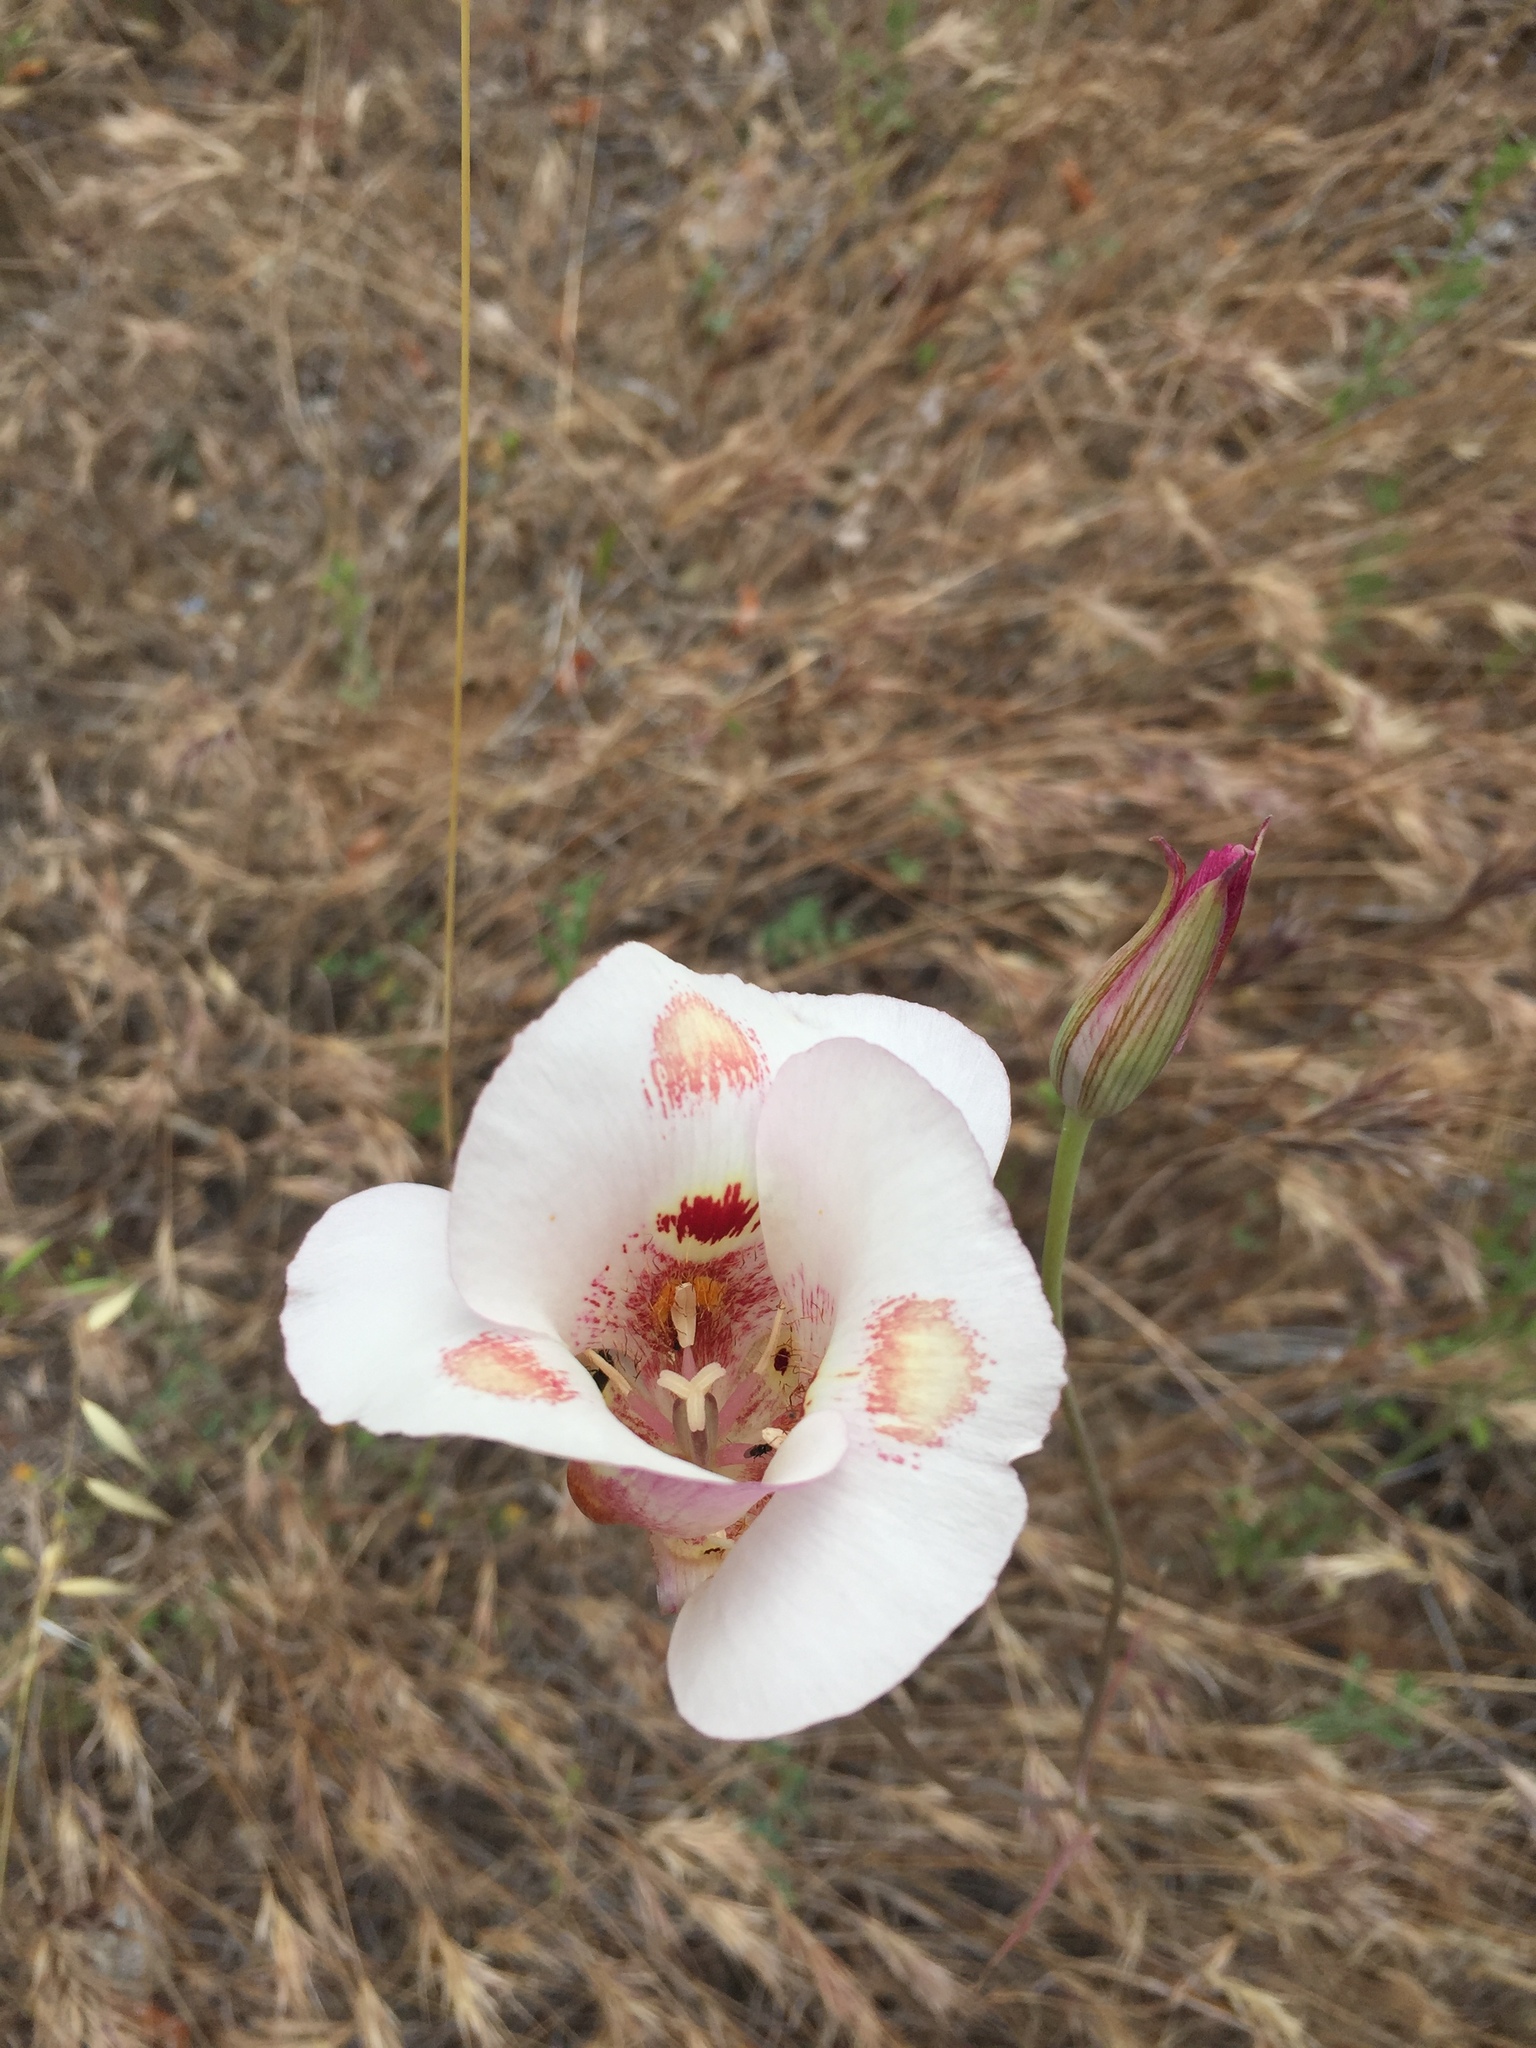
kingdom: Plantae
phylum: Tracheophyta
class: Liliopsida
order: Liliales
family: Liliaceae
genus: Calochortus
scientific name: Calochortus venustus
